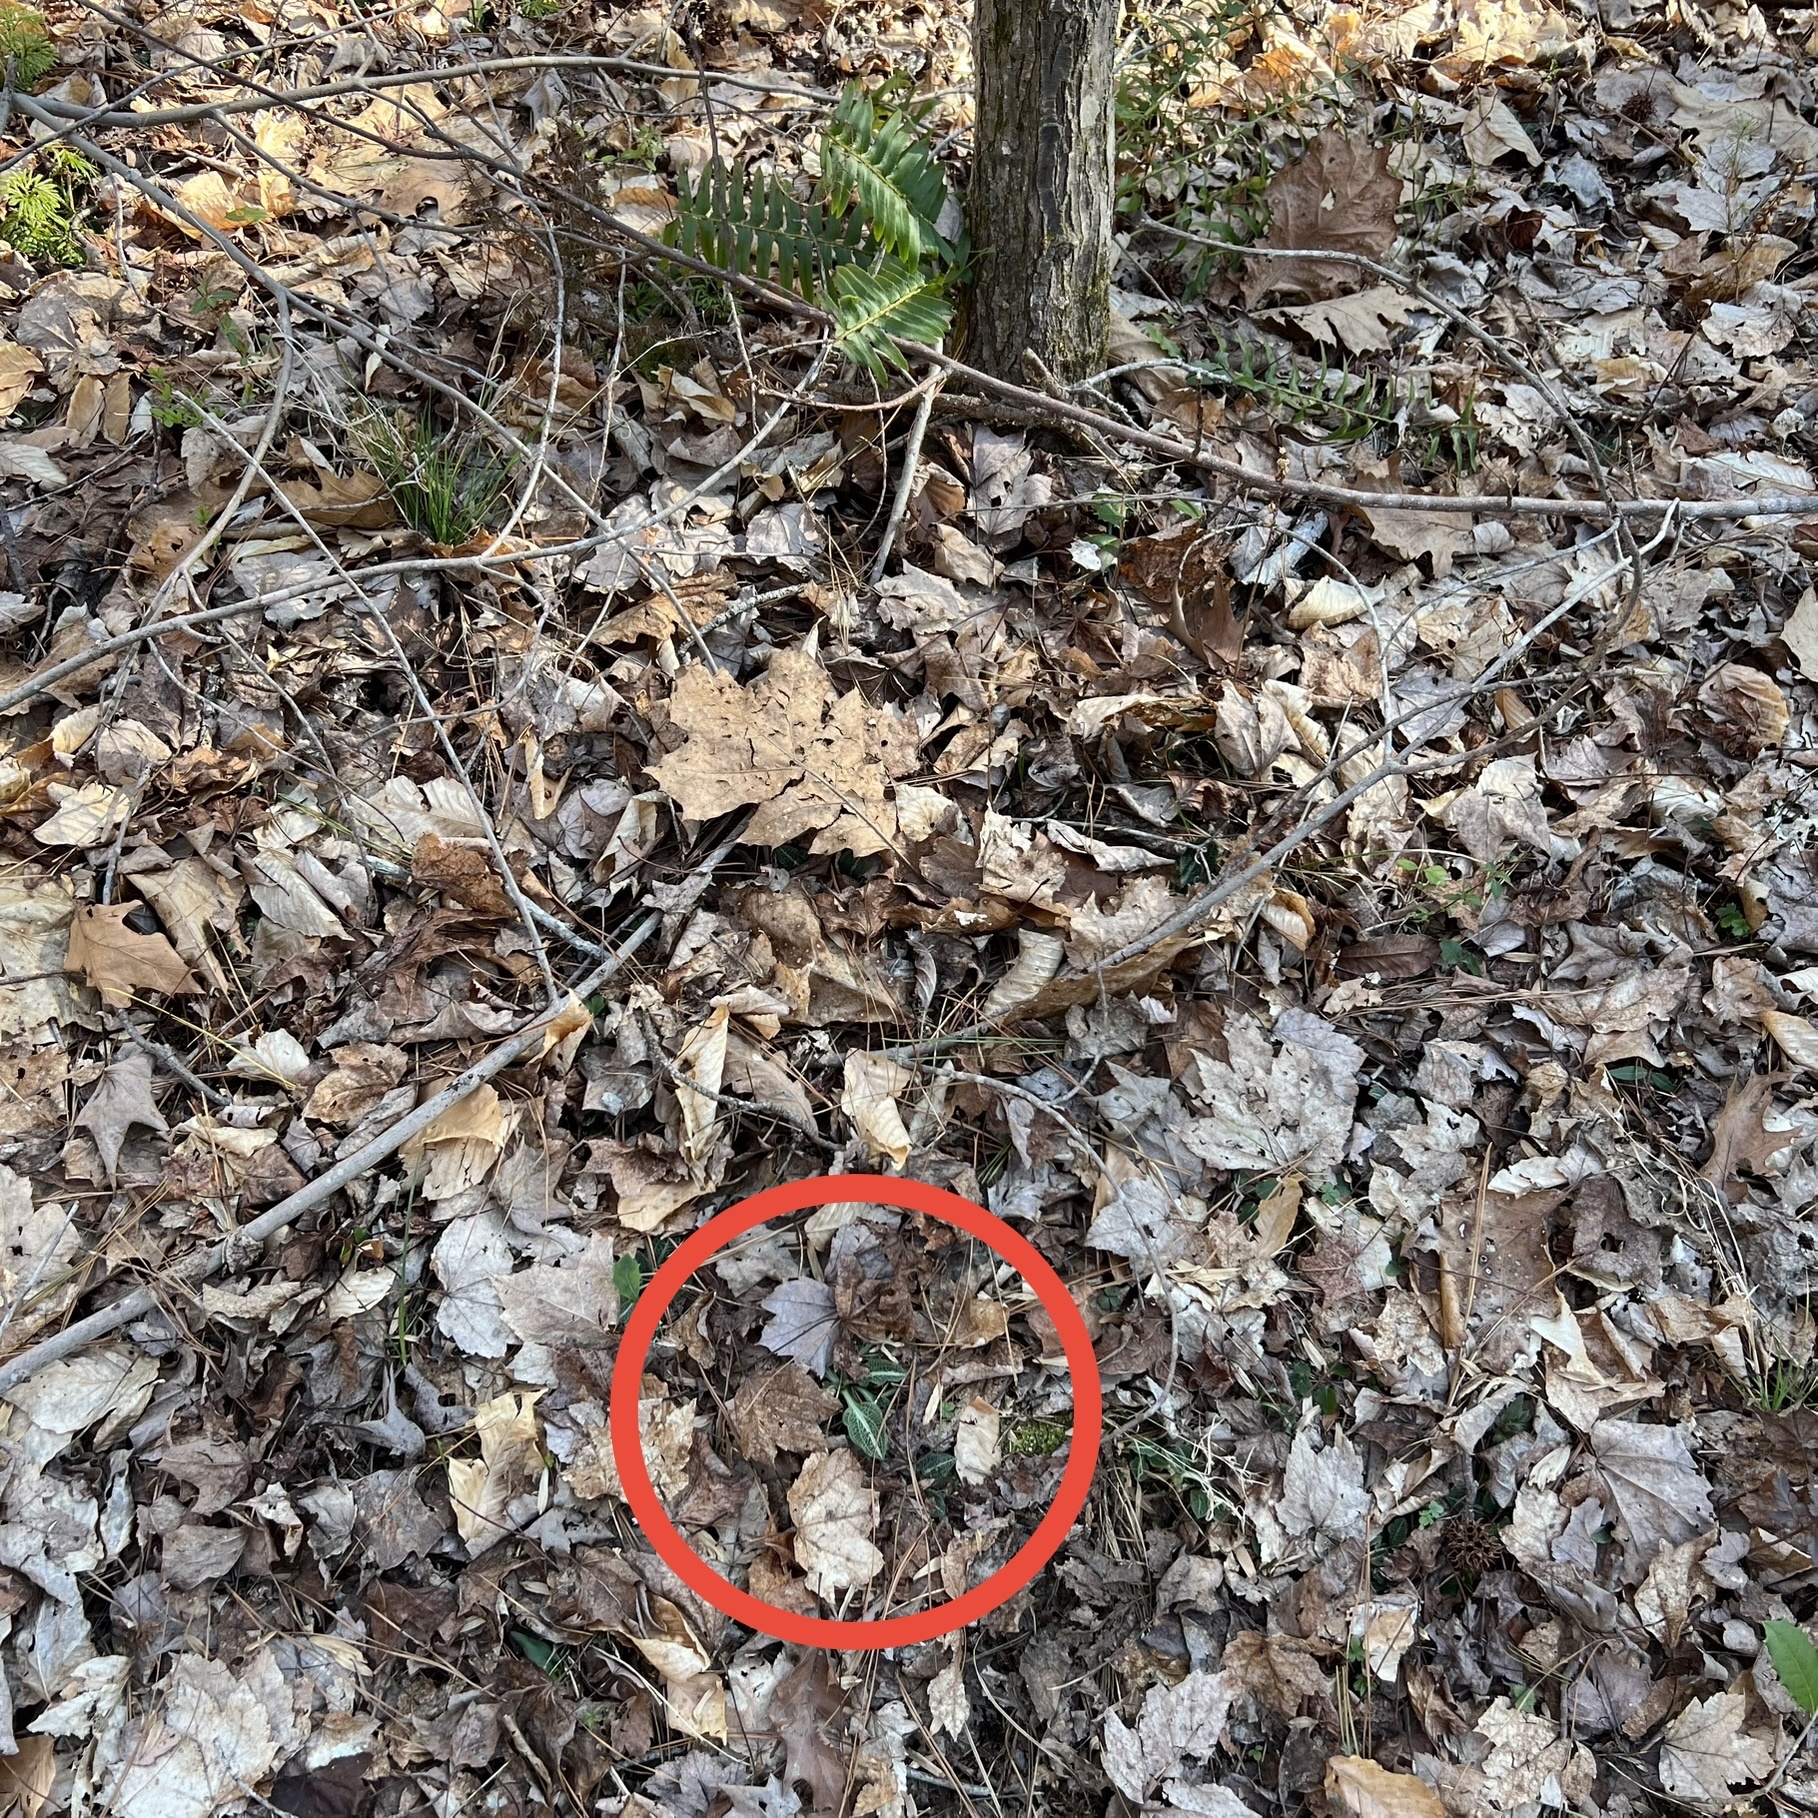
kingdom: Plantae
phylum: Tracheophyta
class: Liliopsida
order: Asparagales
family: Orchidaceae
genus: Goodyera
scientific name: Goodyera pubescens
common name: Downy rattlesnake-plantain
